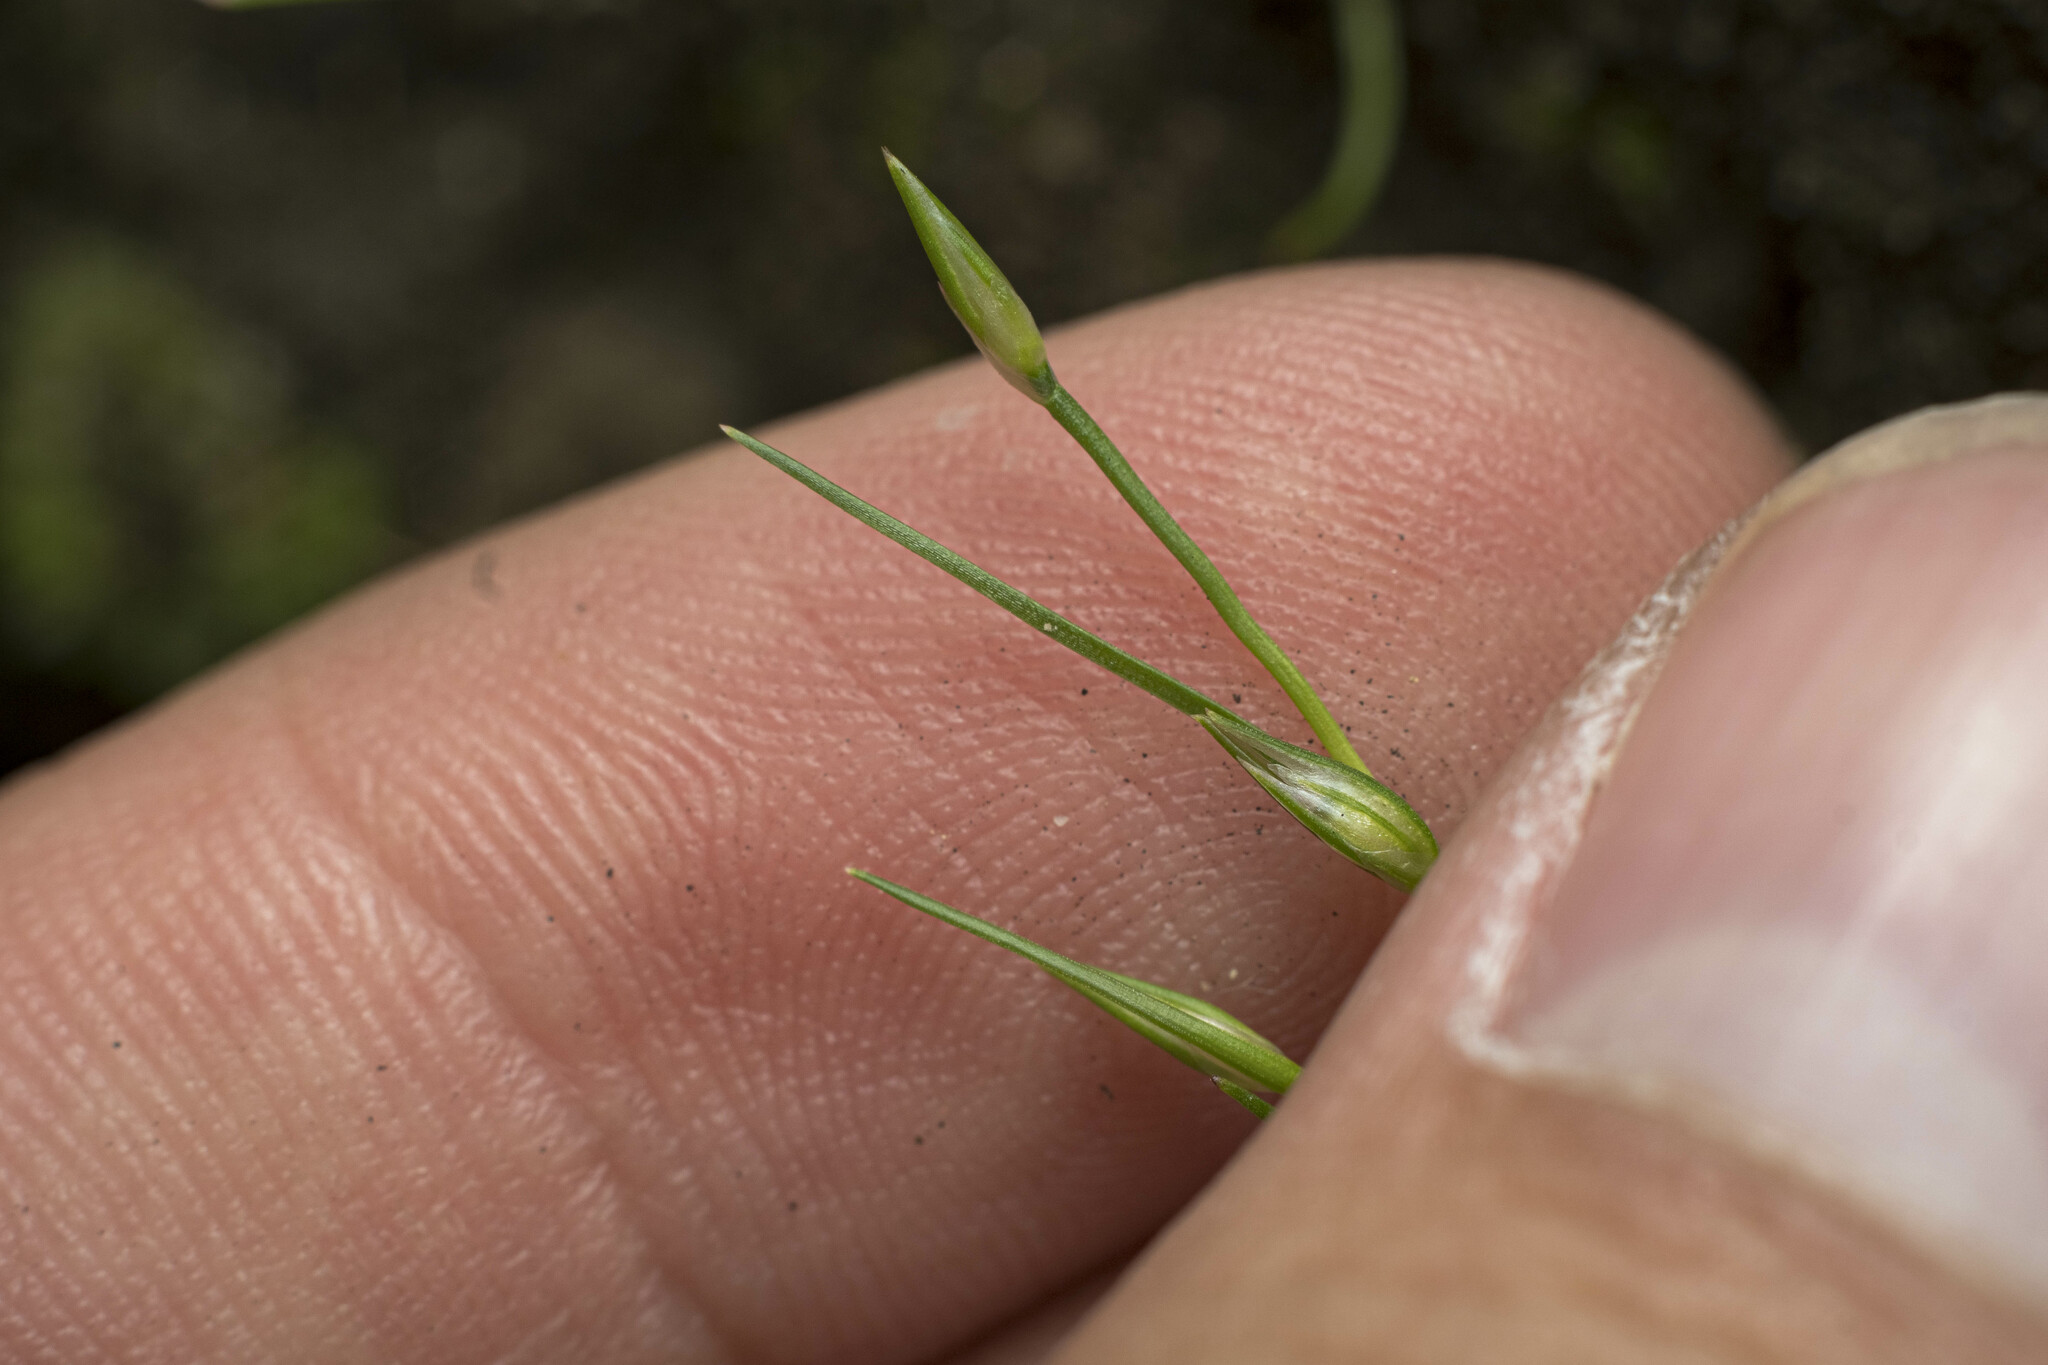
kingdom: Plantae
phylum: Tracheophyta
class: Liliopsida
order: Poales
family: Juncaceae
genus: Juncus
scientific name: Juncus bufonius
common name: Toad rush
